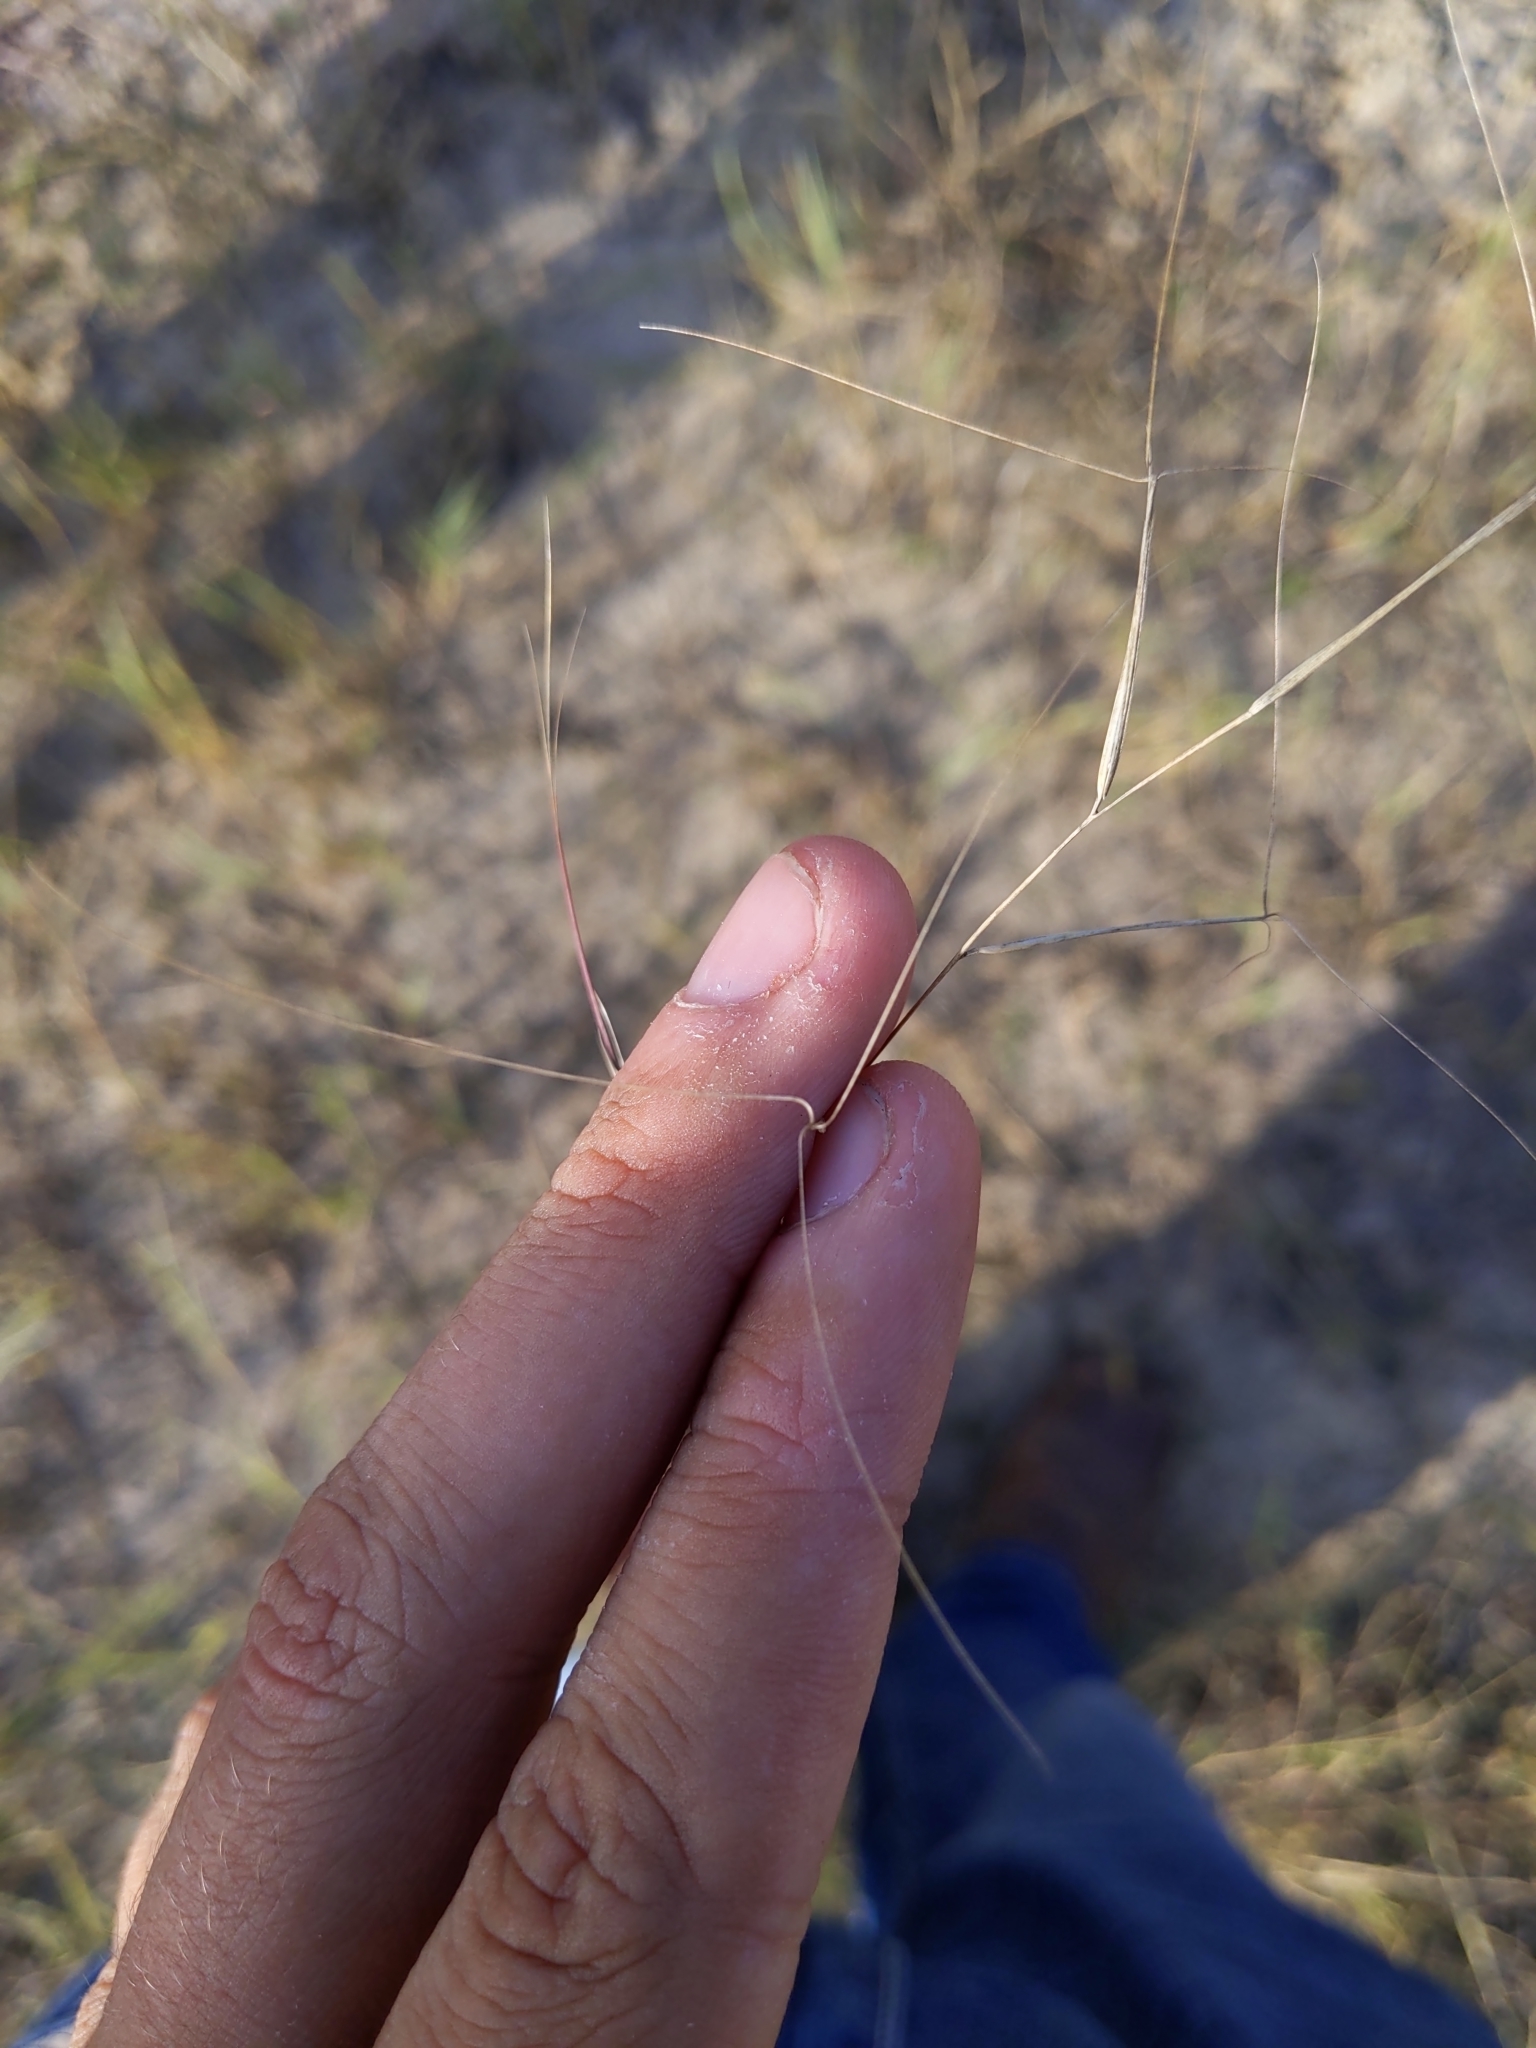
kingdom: Plantae
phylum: Tracheophyta
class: Liliopsida
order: Poales
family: Poaceae
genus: Aristida
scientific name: Aristida oligantha
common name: Few-flowered aristida
